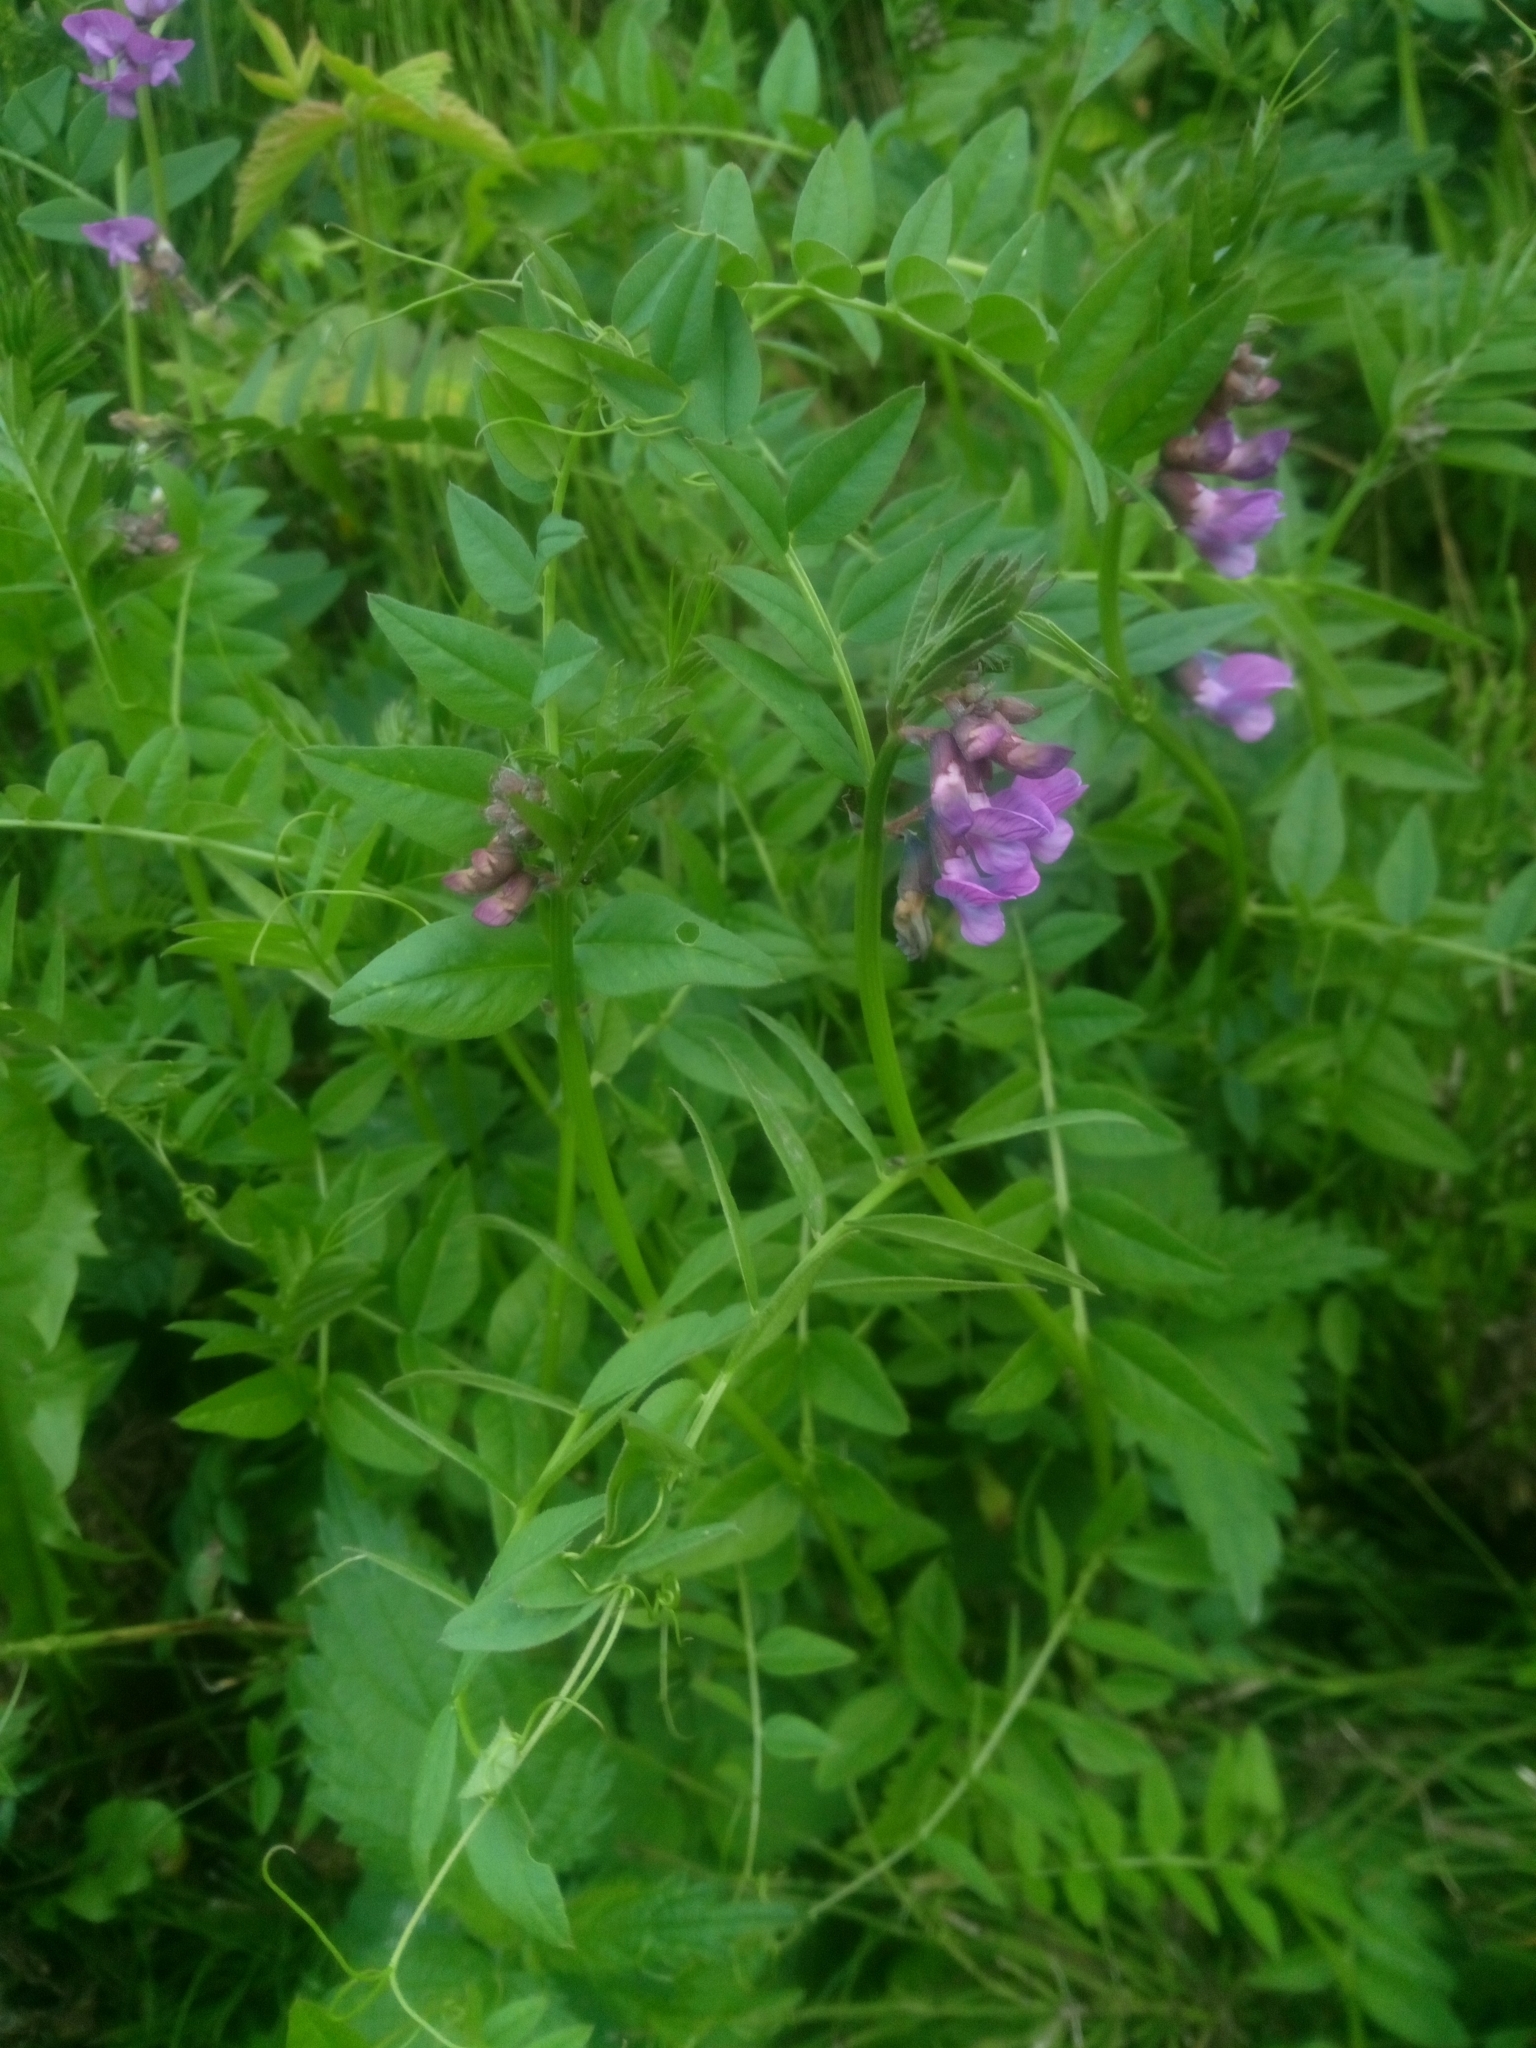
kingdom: Plantae
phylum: Tracheophyta
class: Magnoliopsida
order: Fabales
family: Fabaceae
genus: Vicia
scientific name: Vicia sepium
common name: Bush vetch
